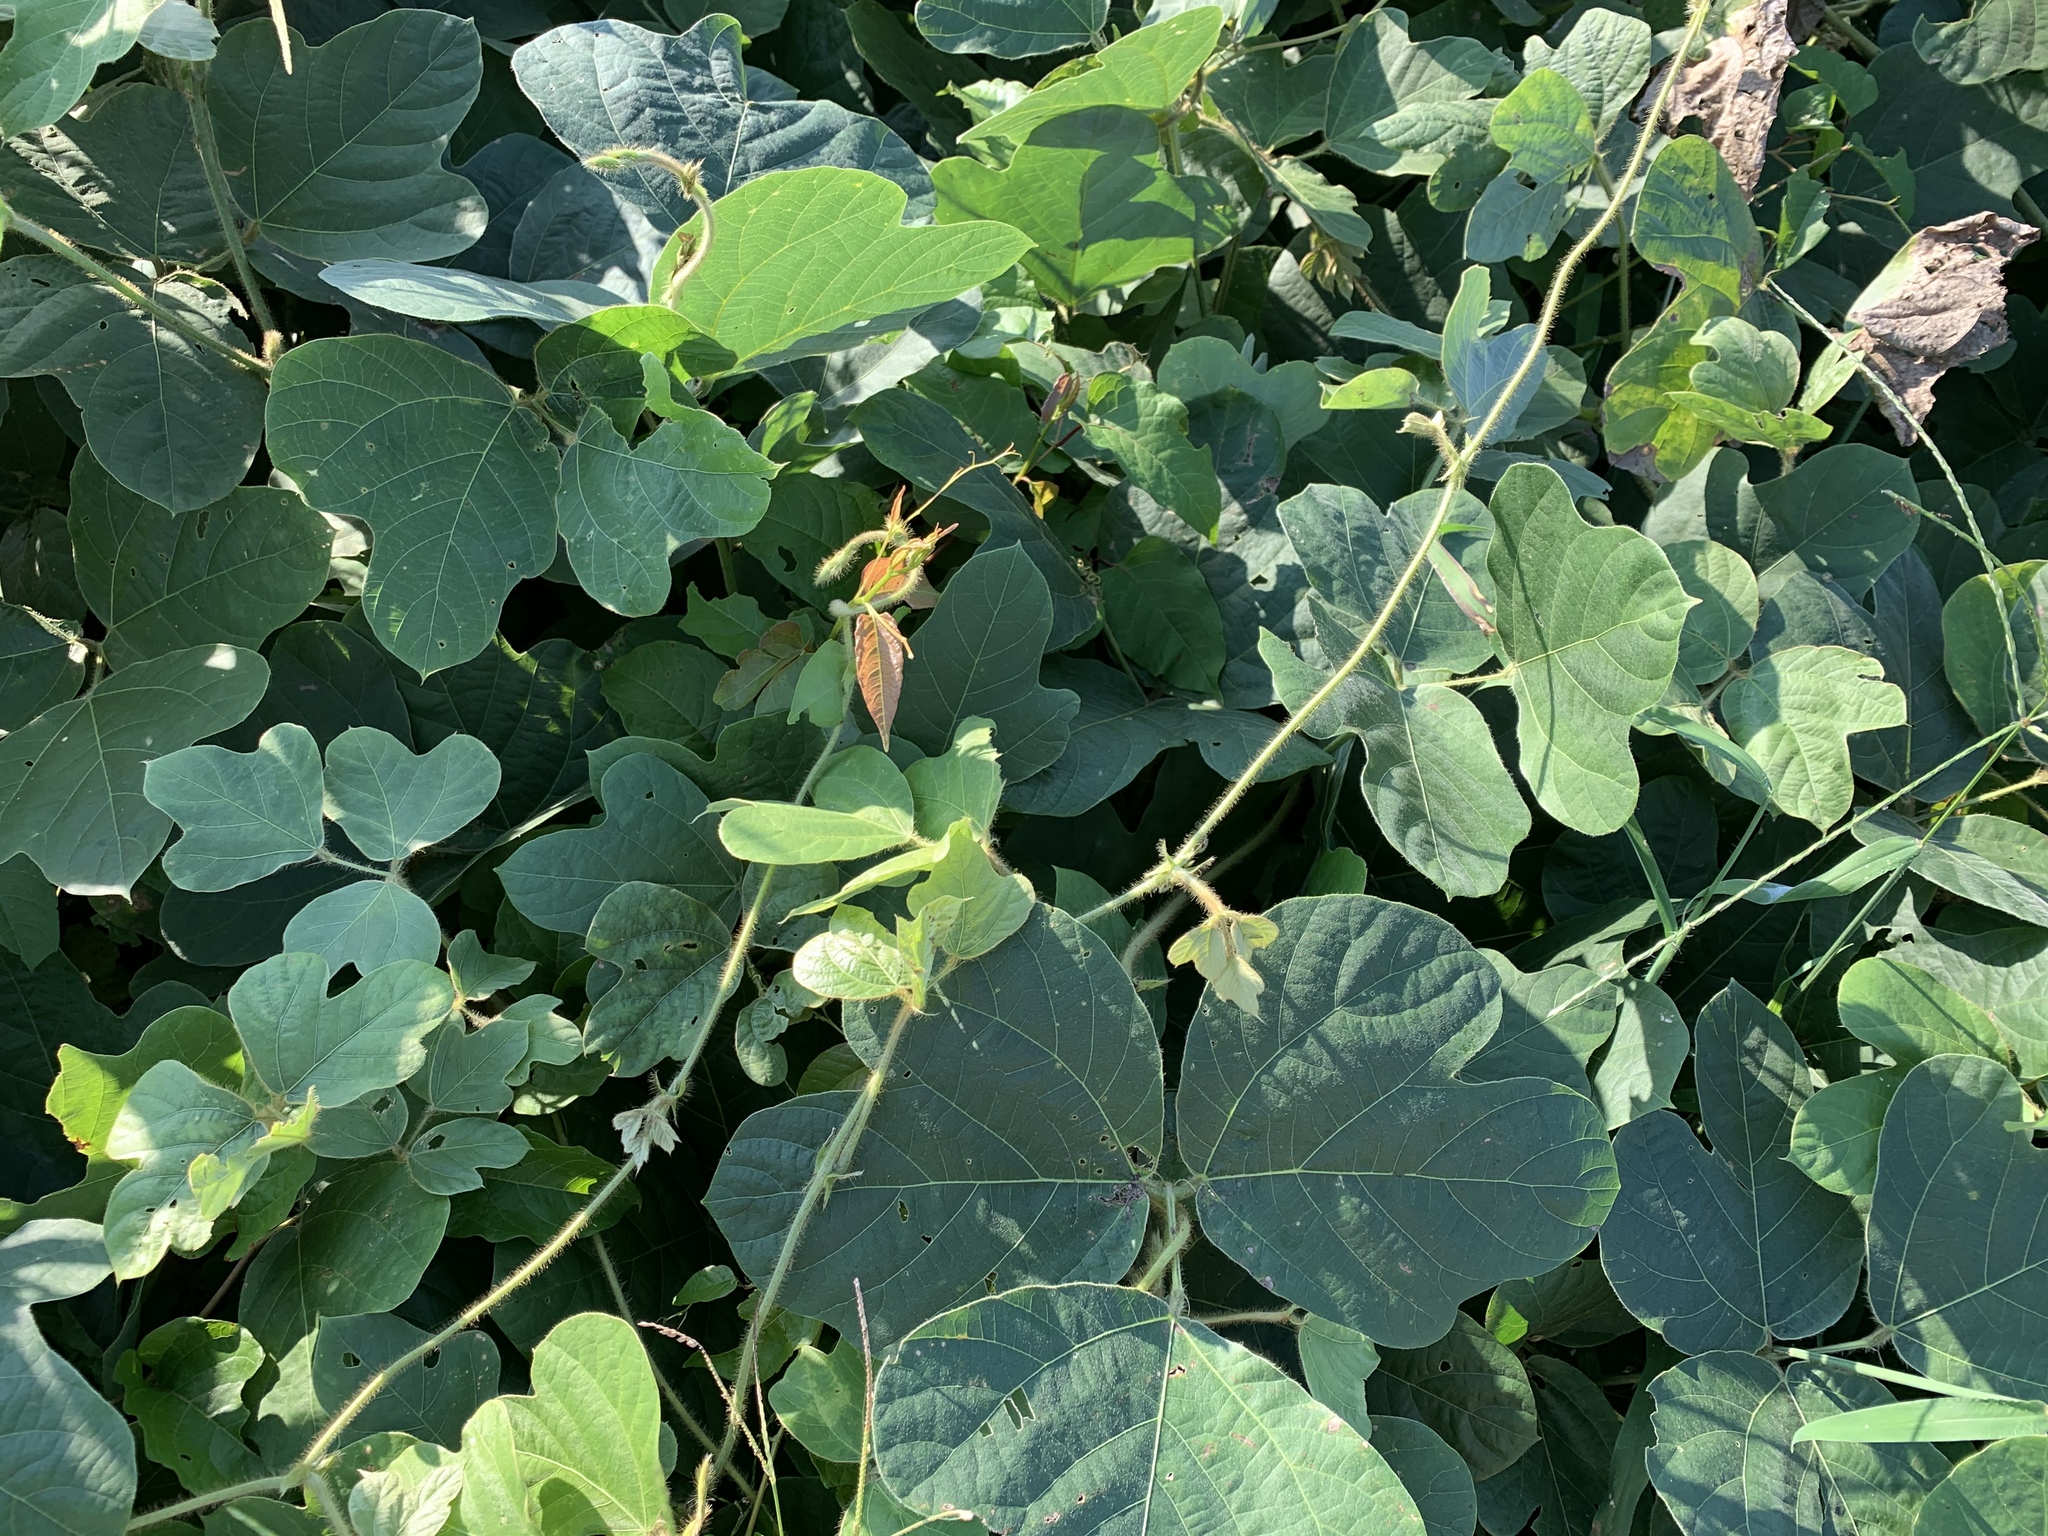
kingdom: Plantae
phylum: Tracheophyta
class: Magnoliopsida
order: Fabales
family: Fabaceae
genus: Pueraria
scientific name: Pueraria montana
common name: Kudzu
